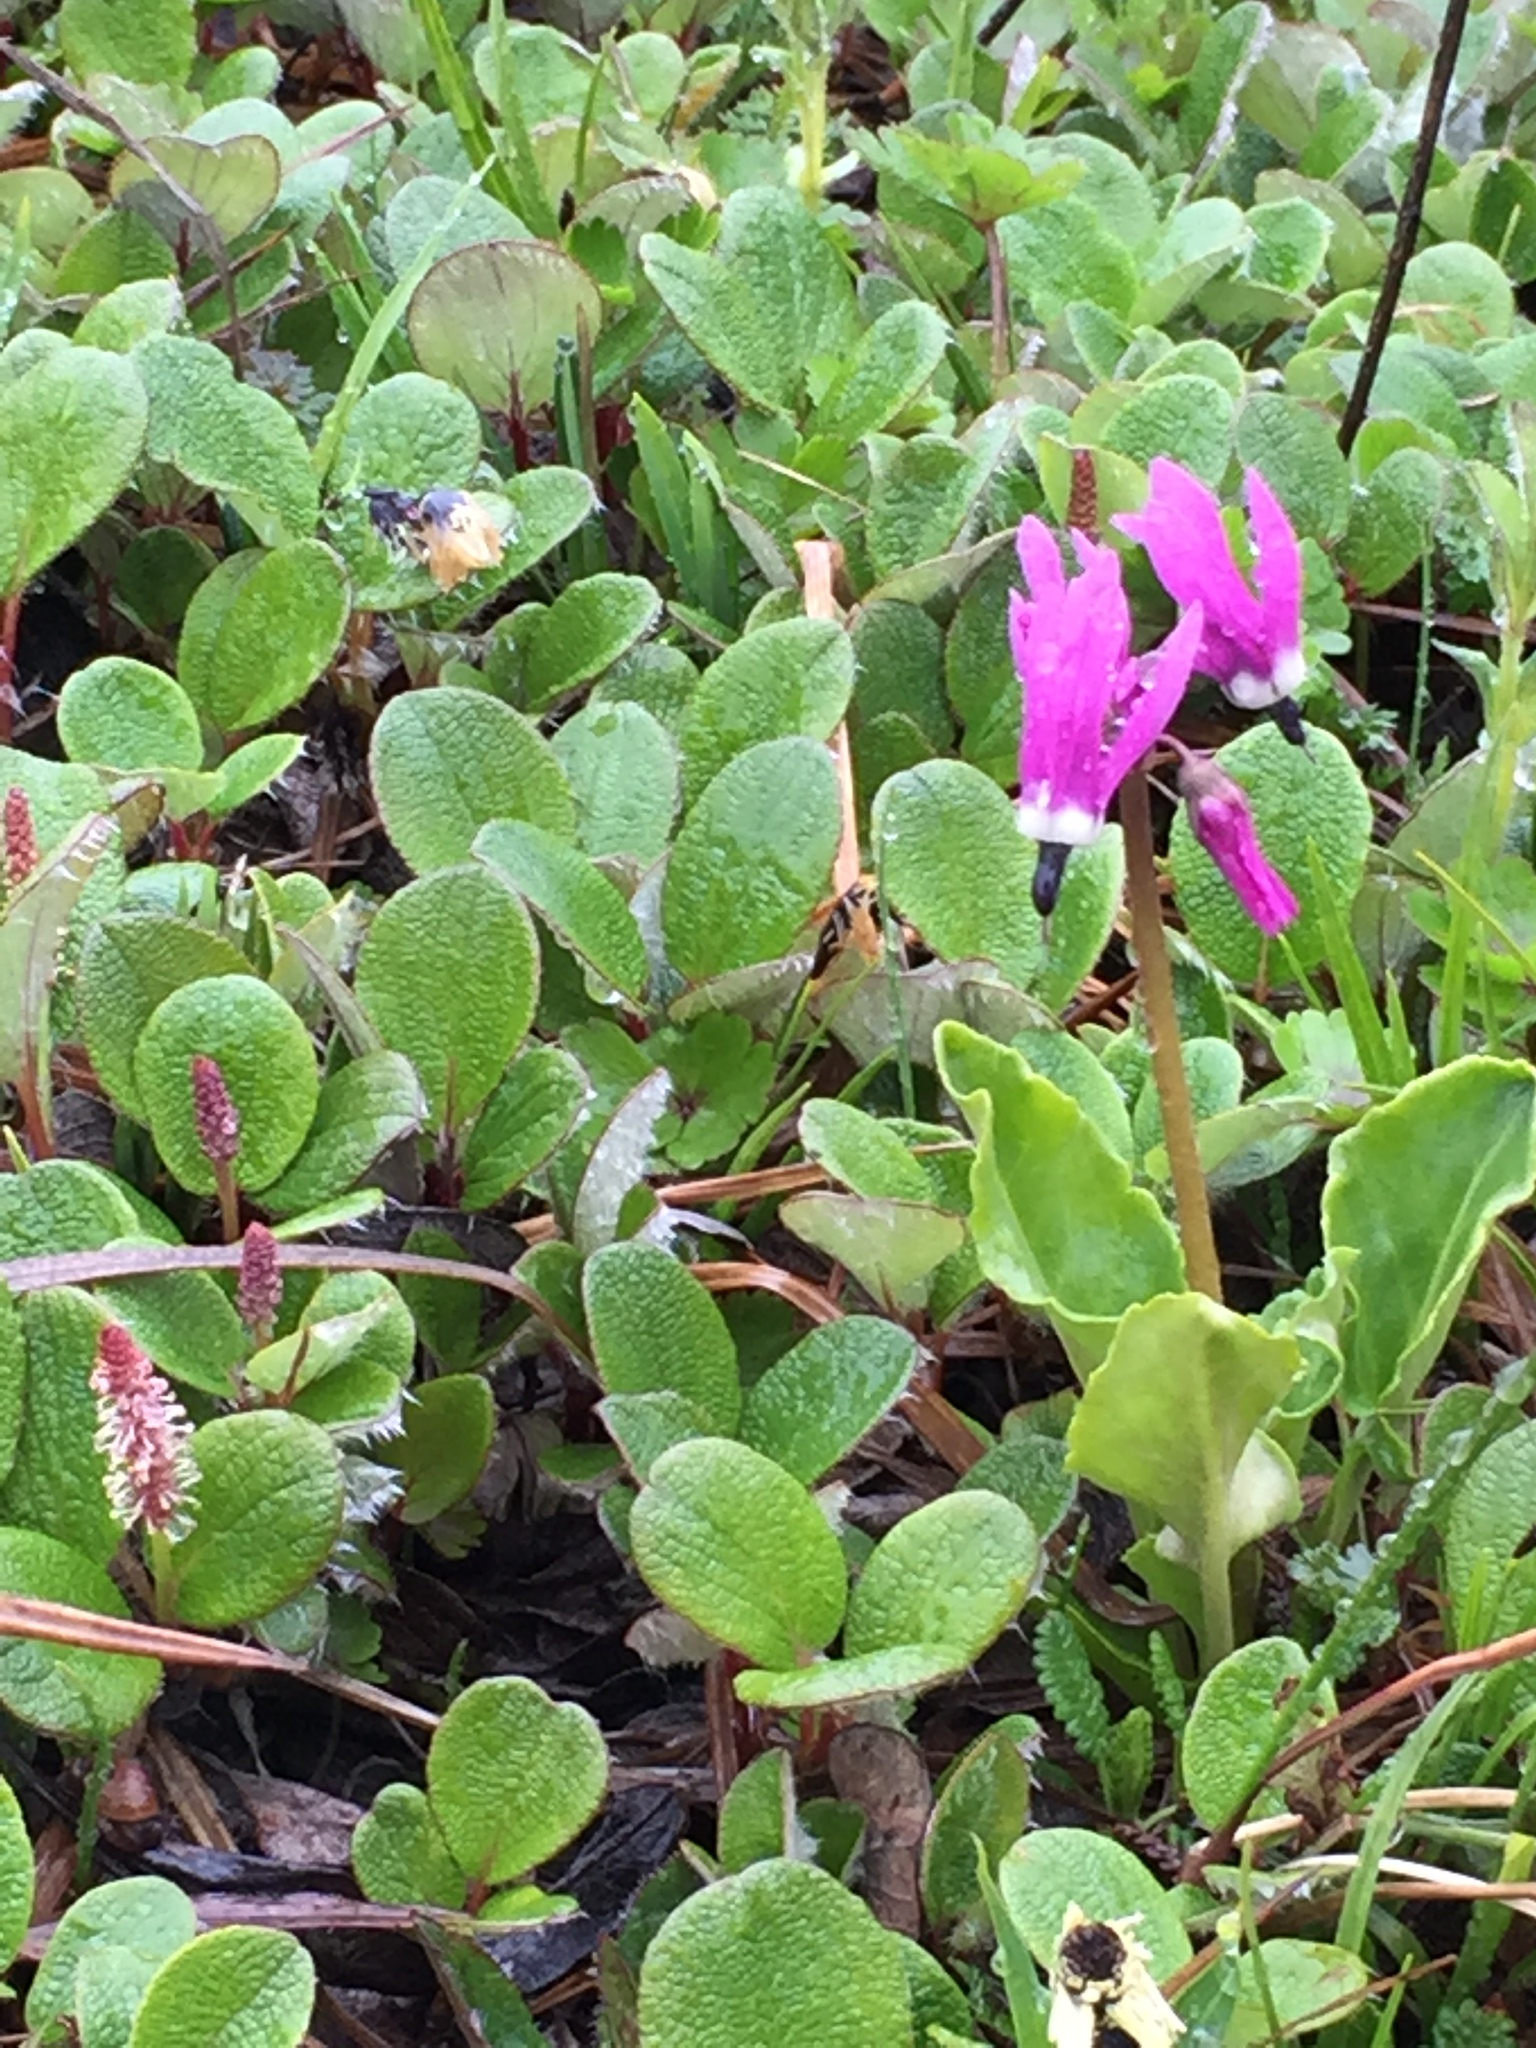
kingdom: Plantae
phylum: Tracheophyta
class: Magnoliopsida
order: Ericales
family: Primulaceae
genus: Dodecatheon
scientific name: Dodecatheon frigidum
